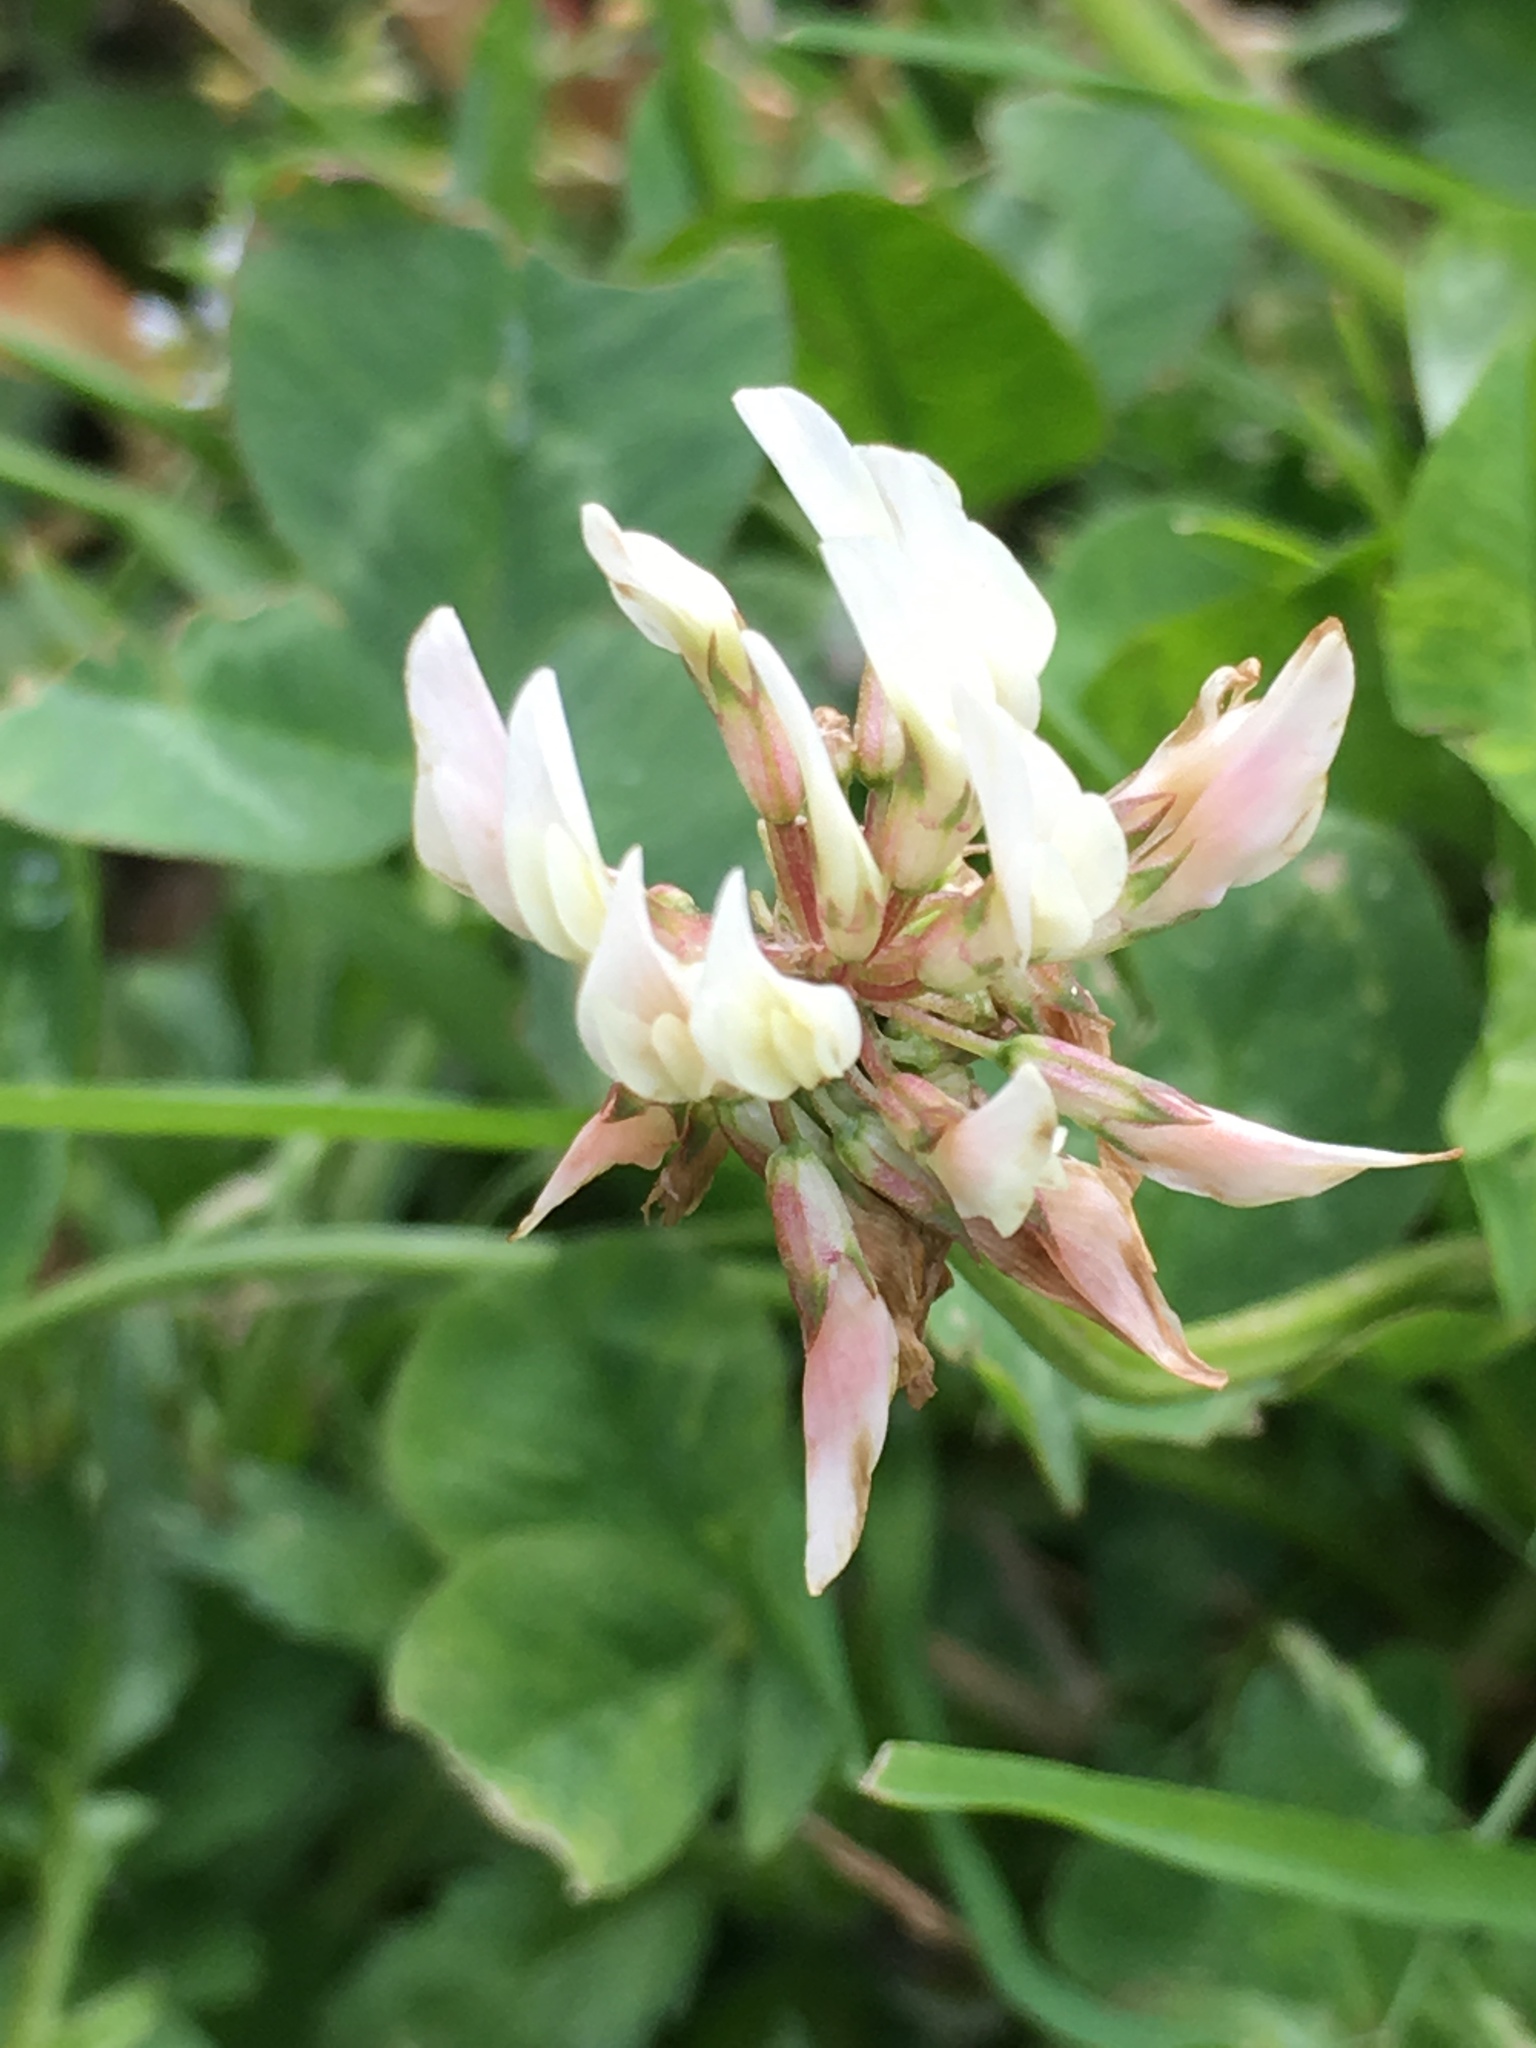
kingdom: Plantae
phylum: Tracheophyta
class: Magnoliopsida
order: Fabales
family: Fabaceae
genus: Trifolium
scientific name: Trifolium repens
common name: White clover
